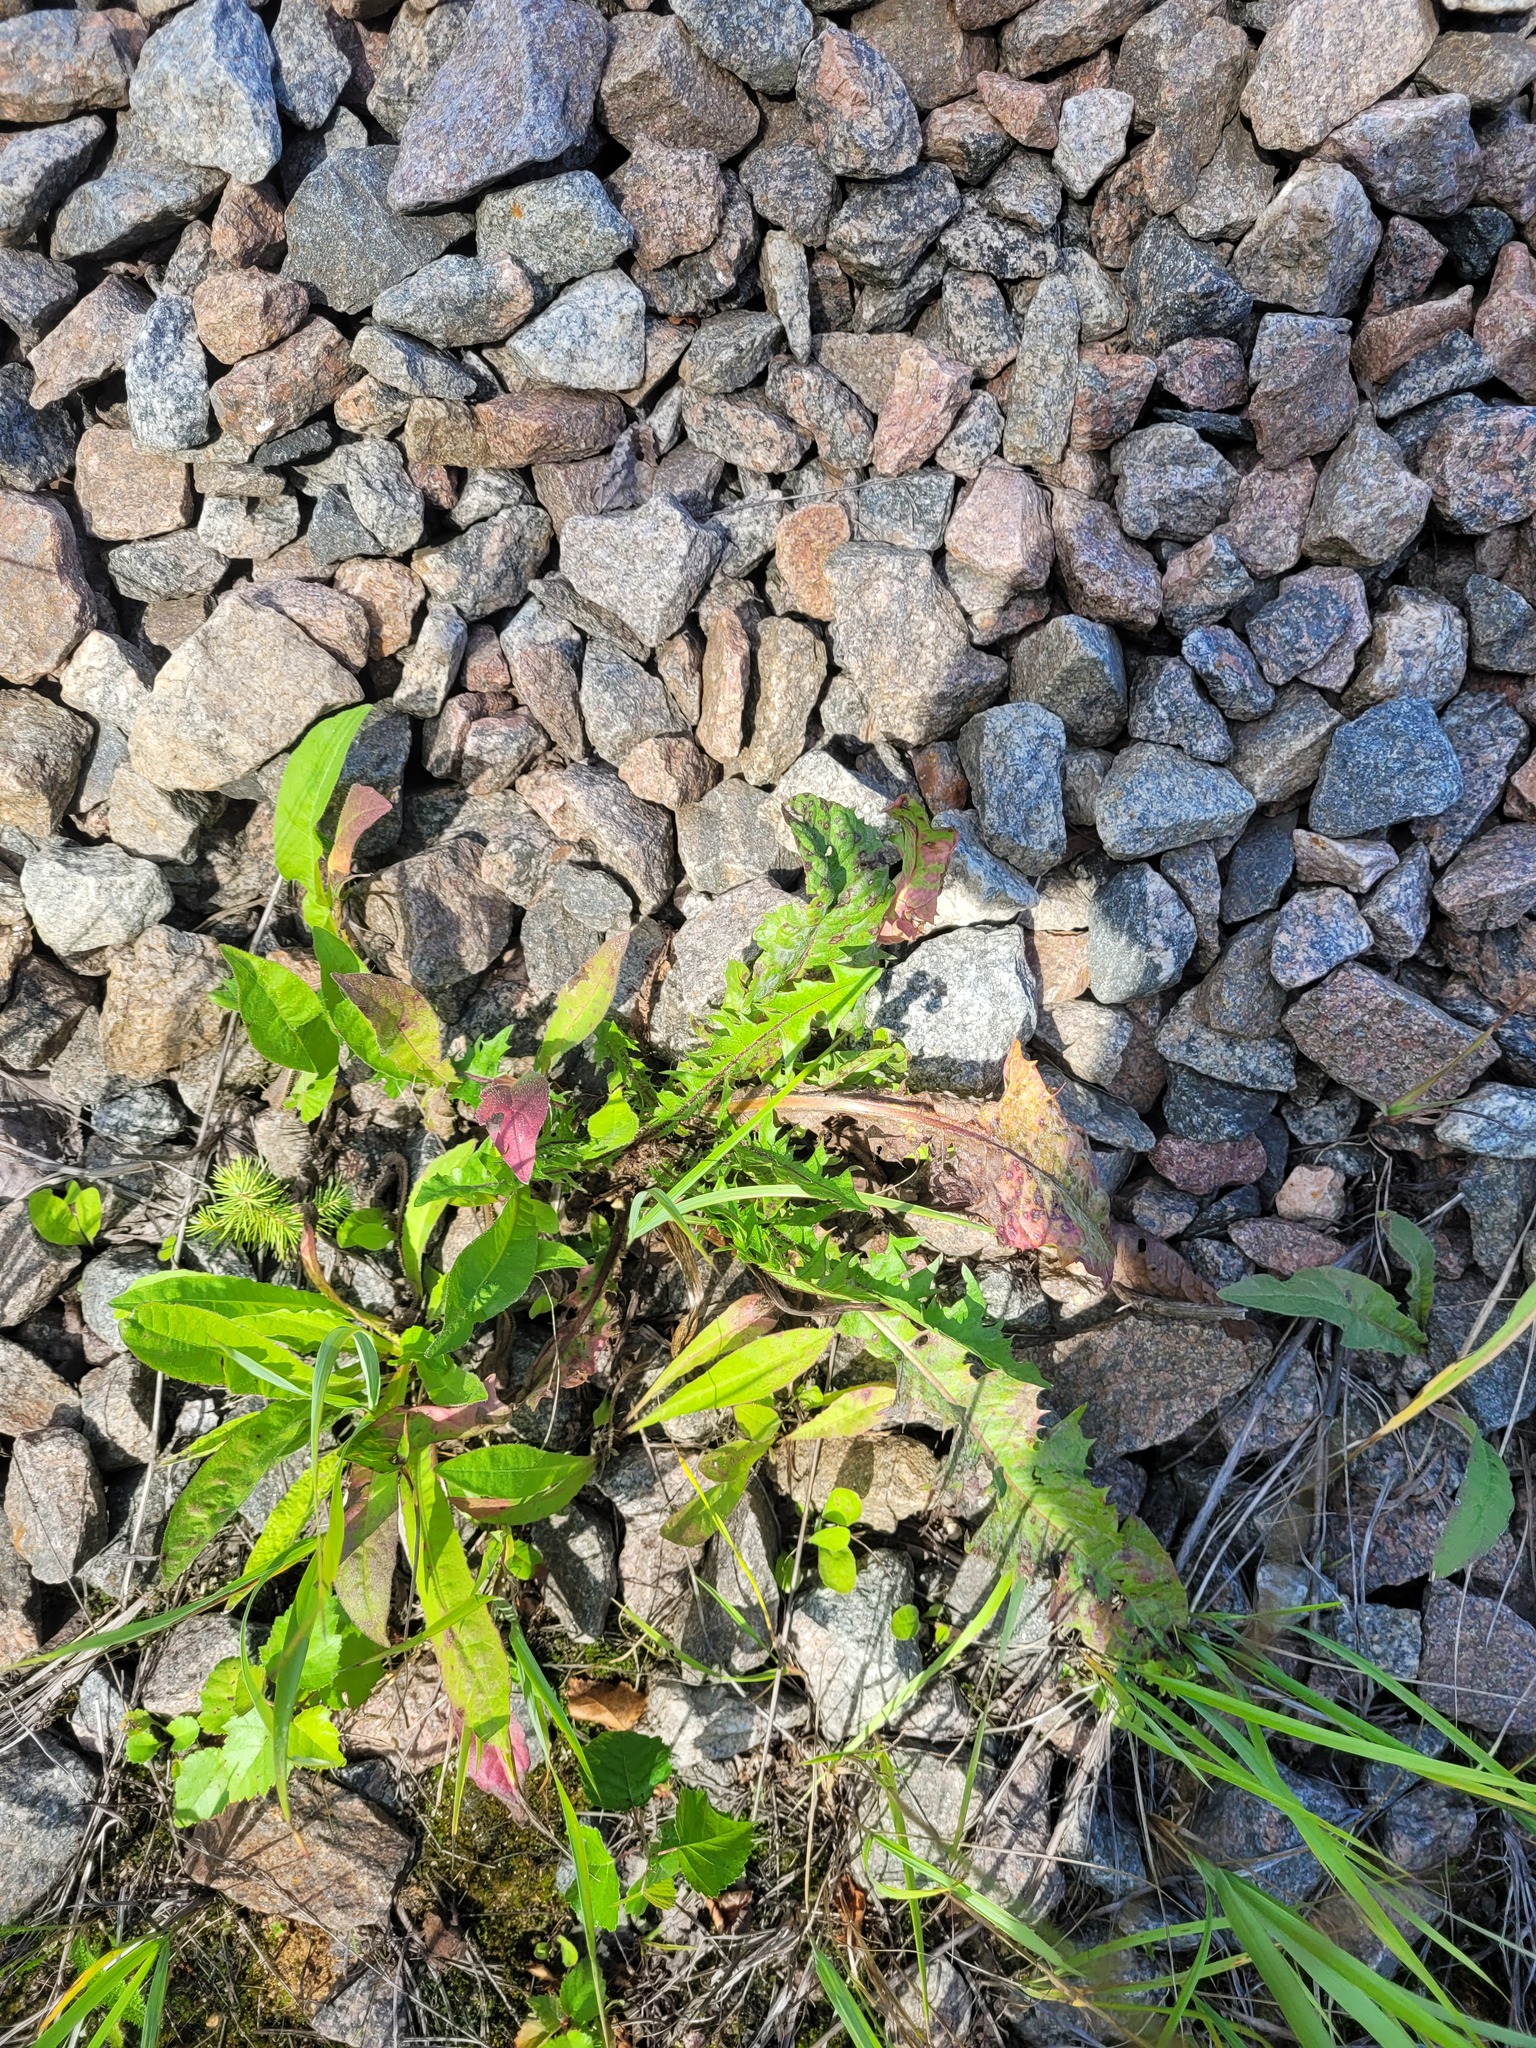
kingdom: Plantae
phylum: Tracheophyta
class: Magnoliopsida
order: Asterales
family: Asteraceae
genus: Taraxacum
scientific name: Taraxacum officinale
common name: Common dandelion
